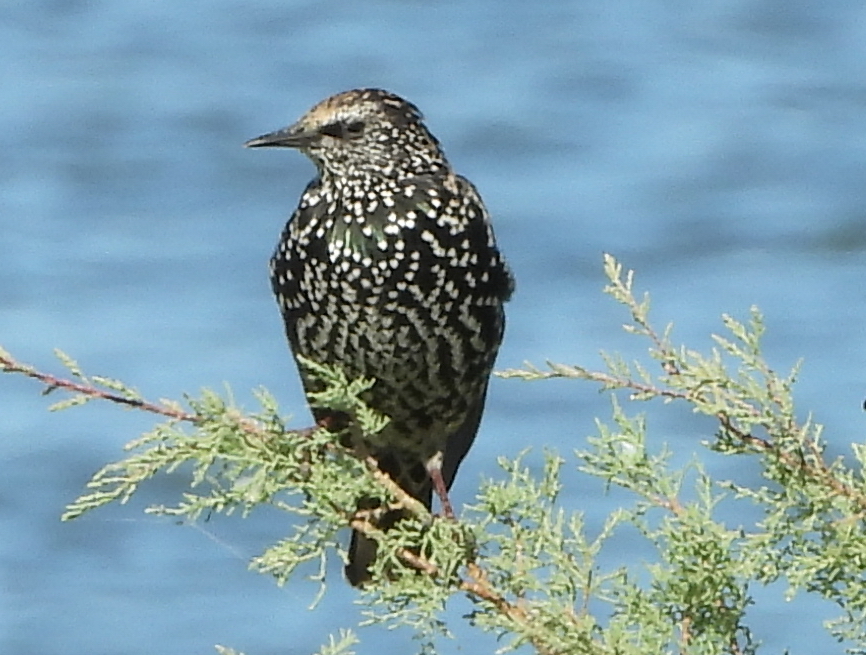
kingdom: Animalia
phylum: Chordata
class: Aves
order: Passeriformes
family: Sturnidae
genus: Sturnus
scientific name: Sturnus vulgaris
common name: Common starling
